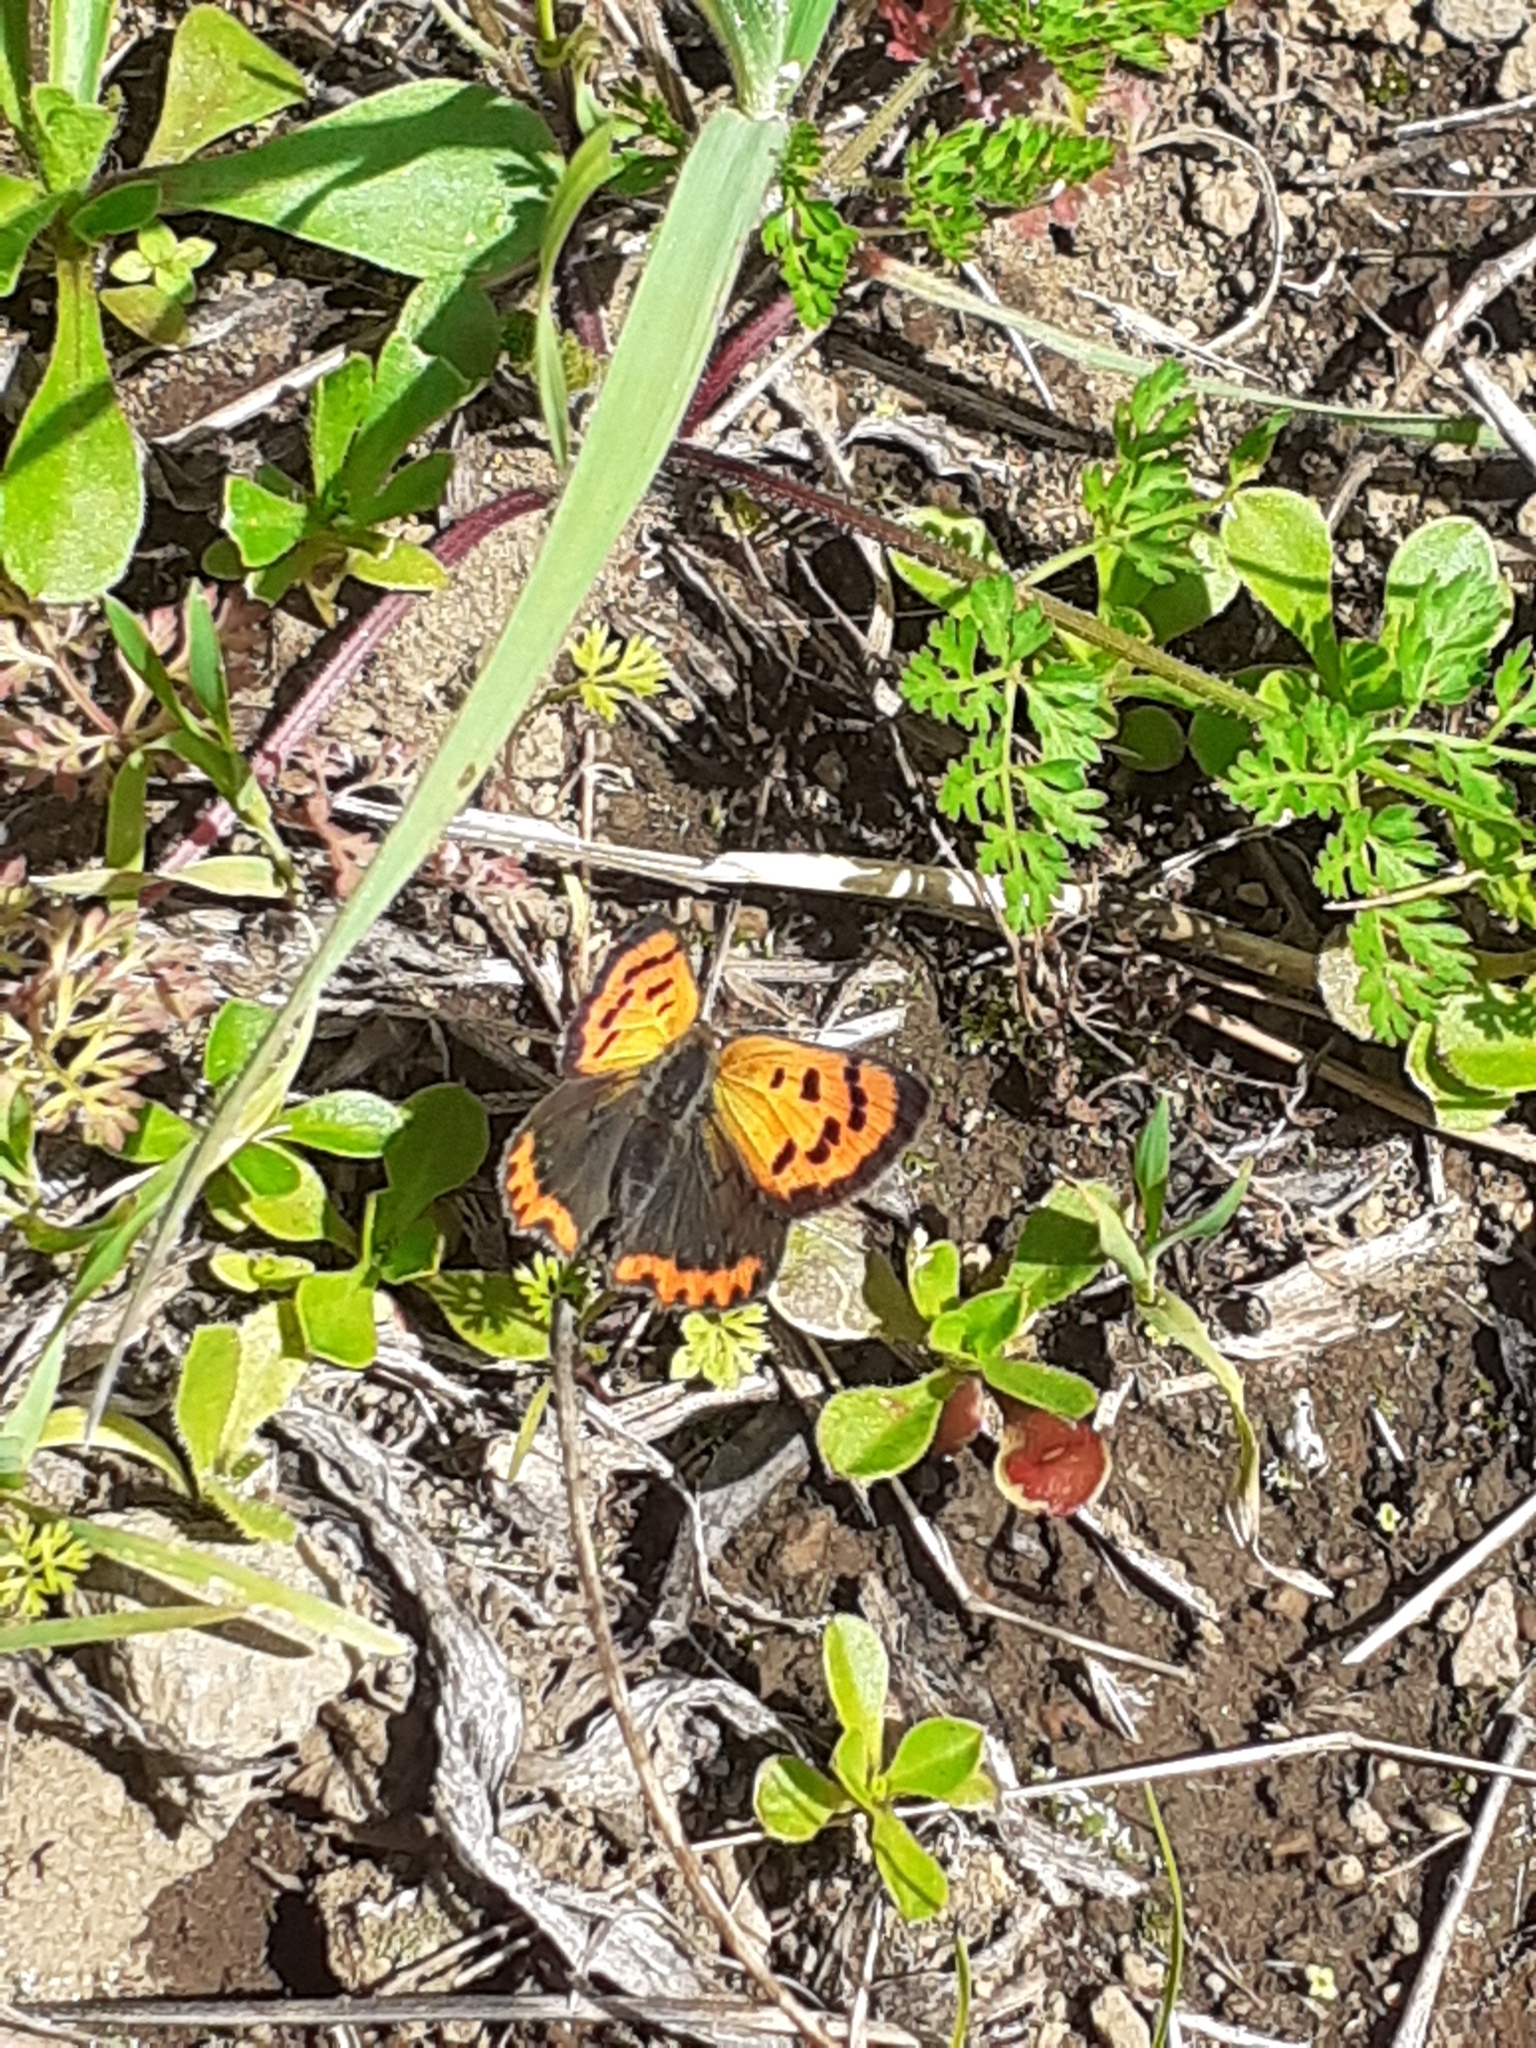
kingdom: Animalia
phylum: Arthropoda
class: Insecta
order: Lepidoptera
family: Lycaenidae
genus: Lycaena
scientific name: Lycaena phlaeas
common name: Small copper
